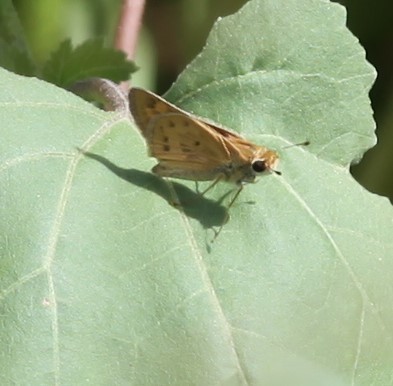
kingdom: Animalia
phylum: Arthropoda
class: Insecta
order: Lepidoptera
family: Hesperiidae
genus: Hylephila
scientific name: Hylephila phyleus
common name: Fiery skipper
